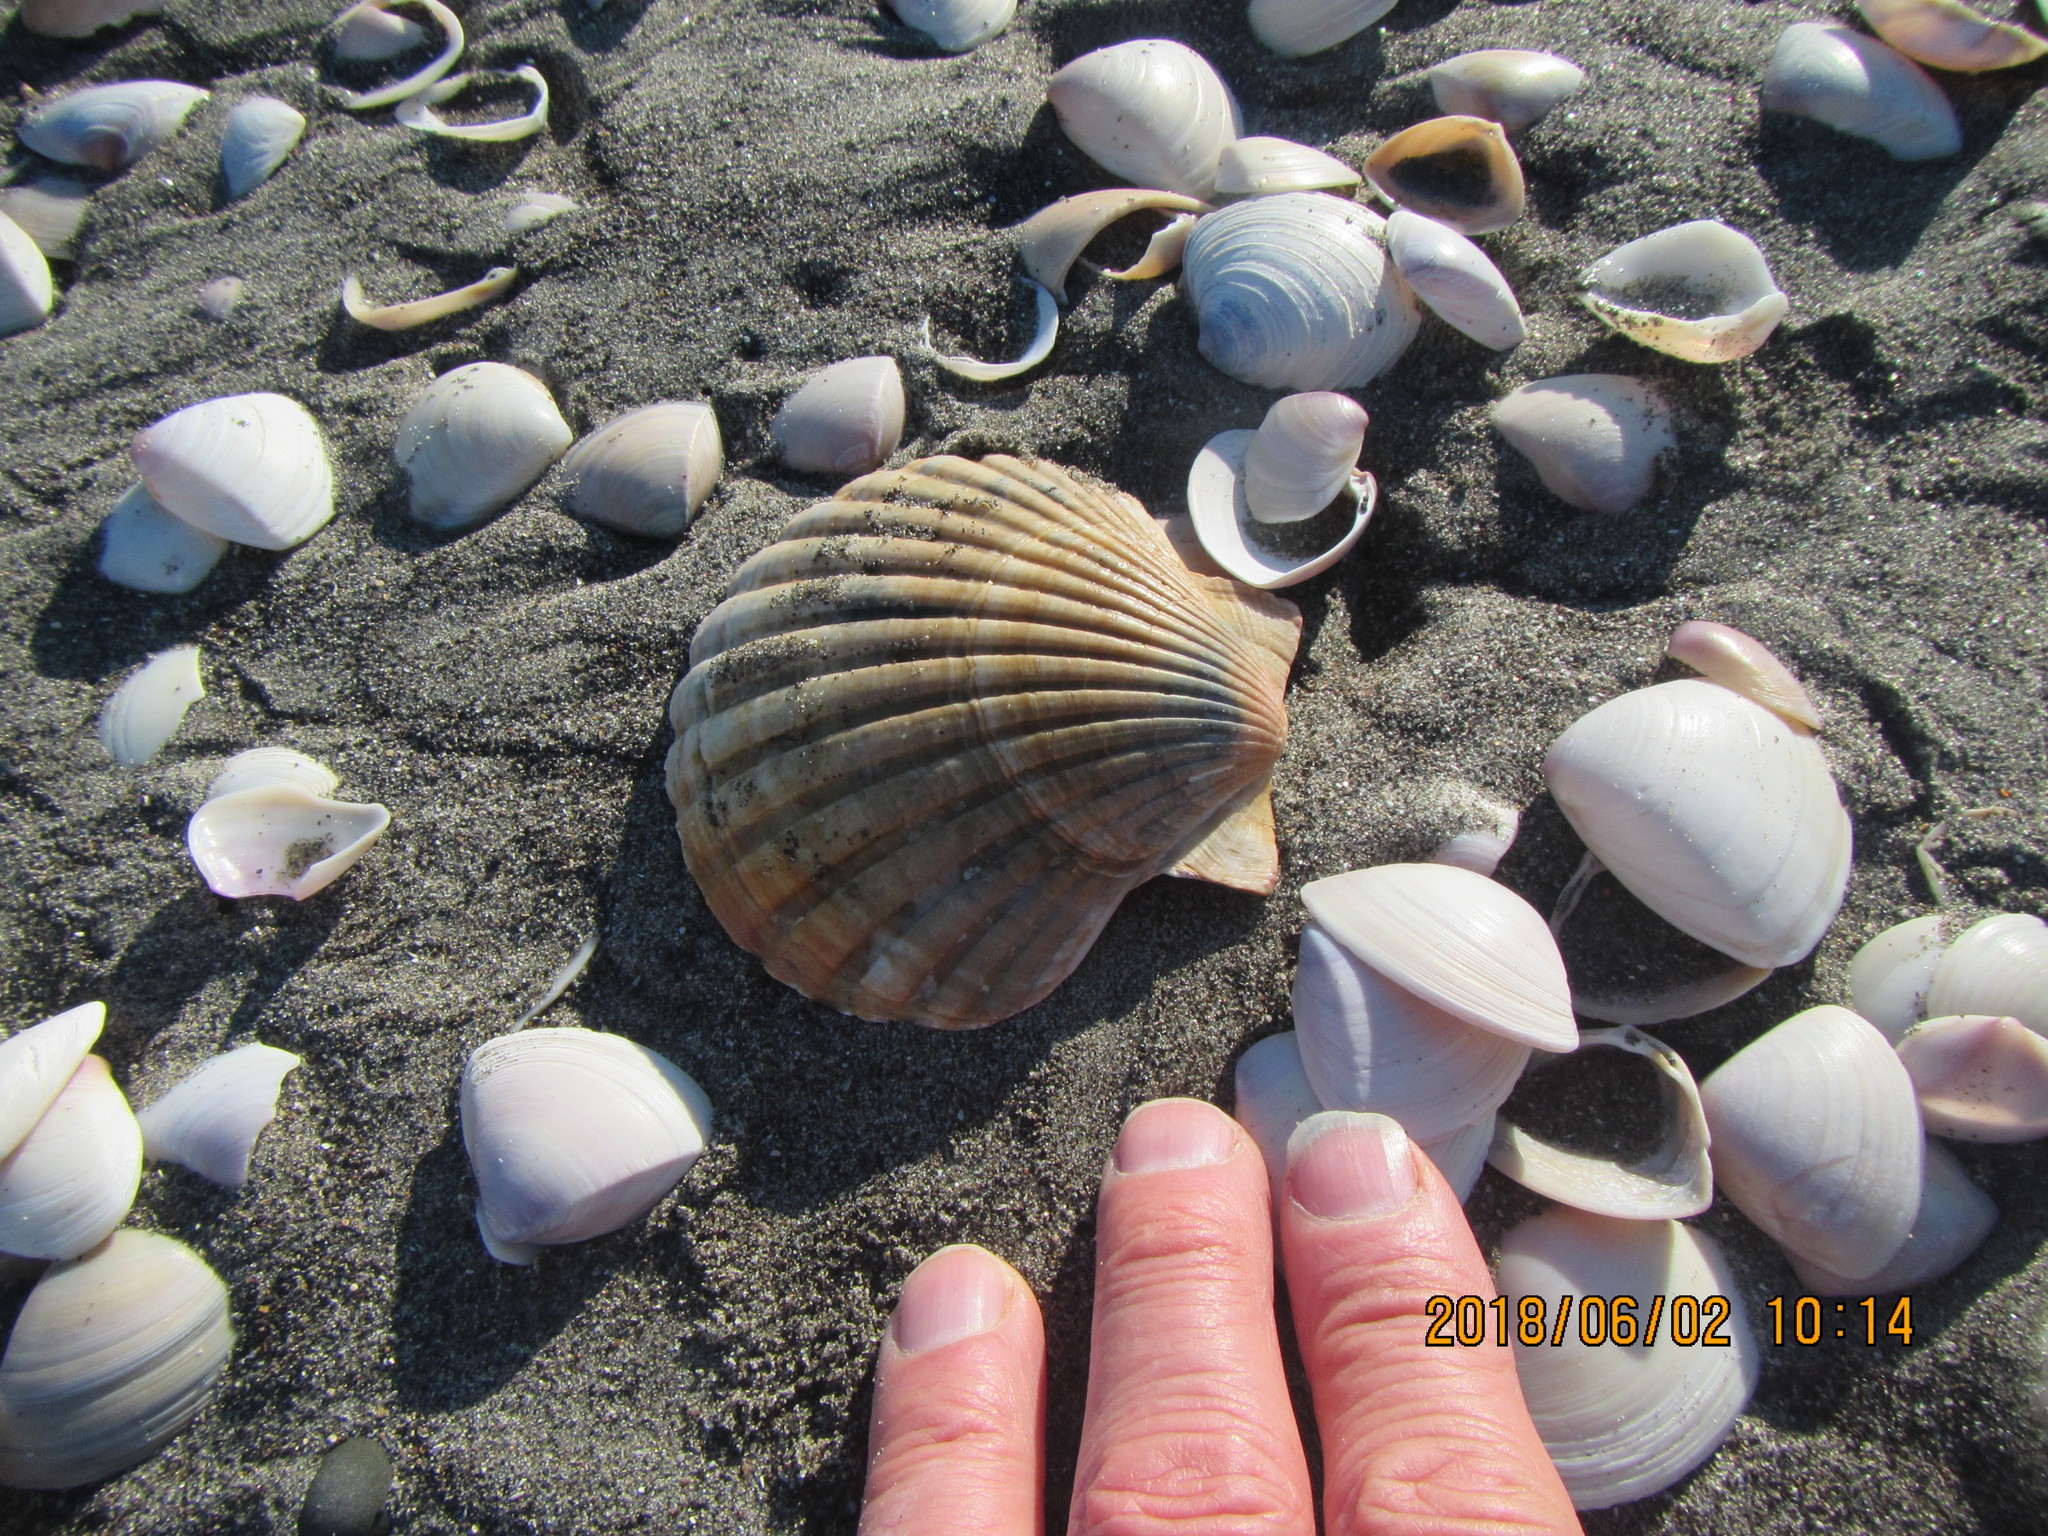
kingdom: Animalia
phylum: Mollusca
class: Bivalvia
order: Pectinida
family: Pectinidae
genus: Pecten
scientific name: Pecten novaezelandiae
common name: New zealand scallop
